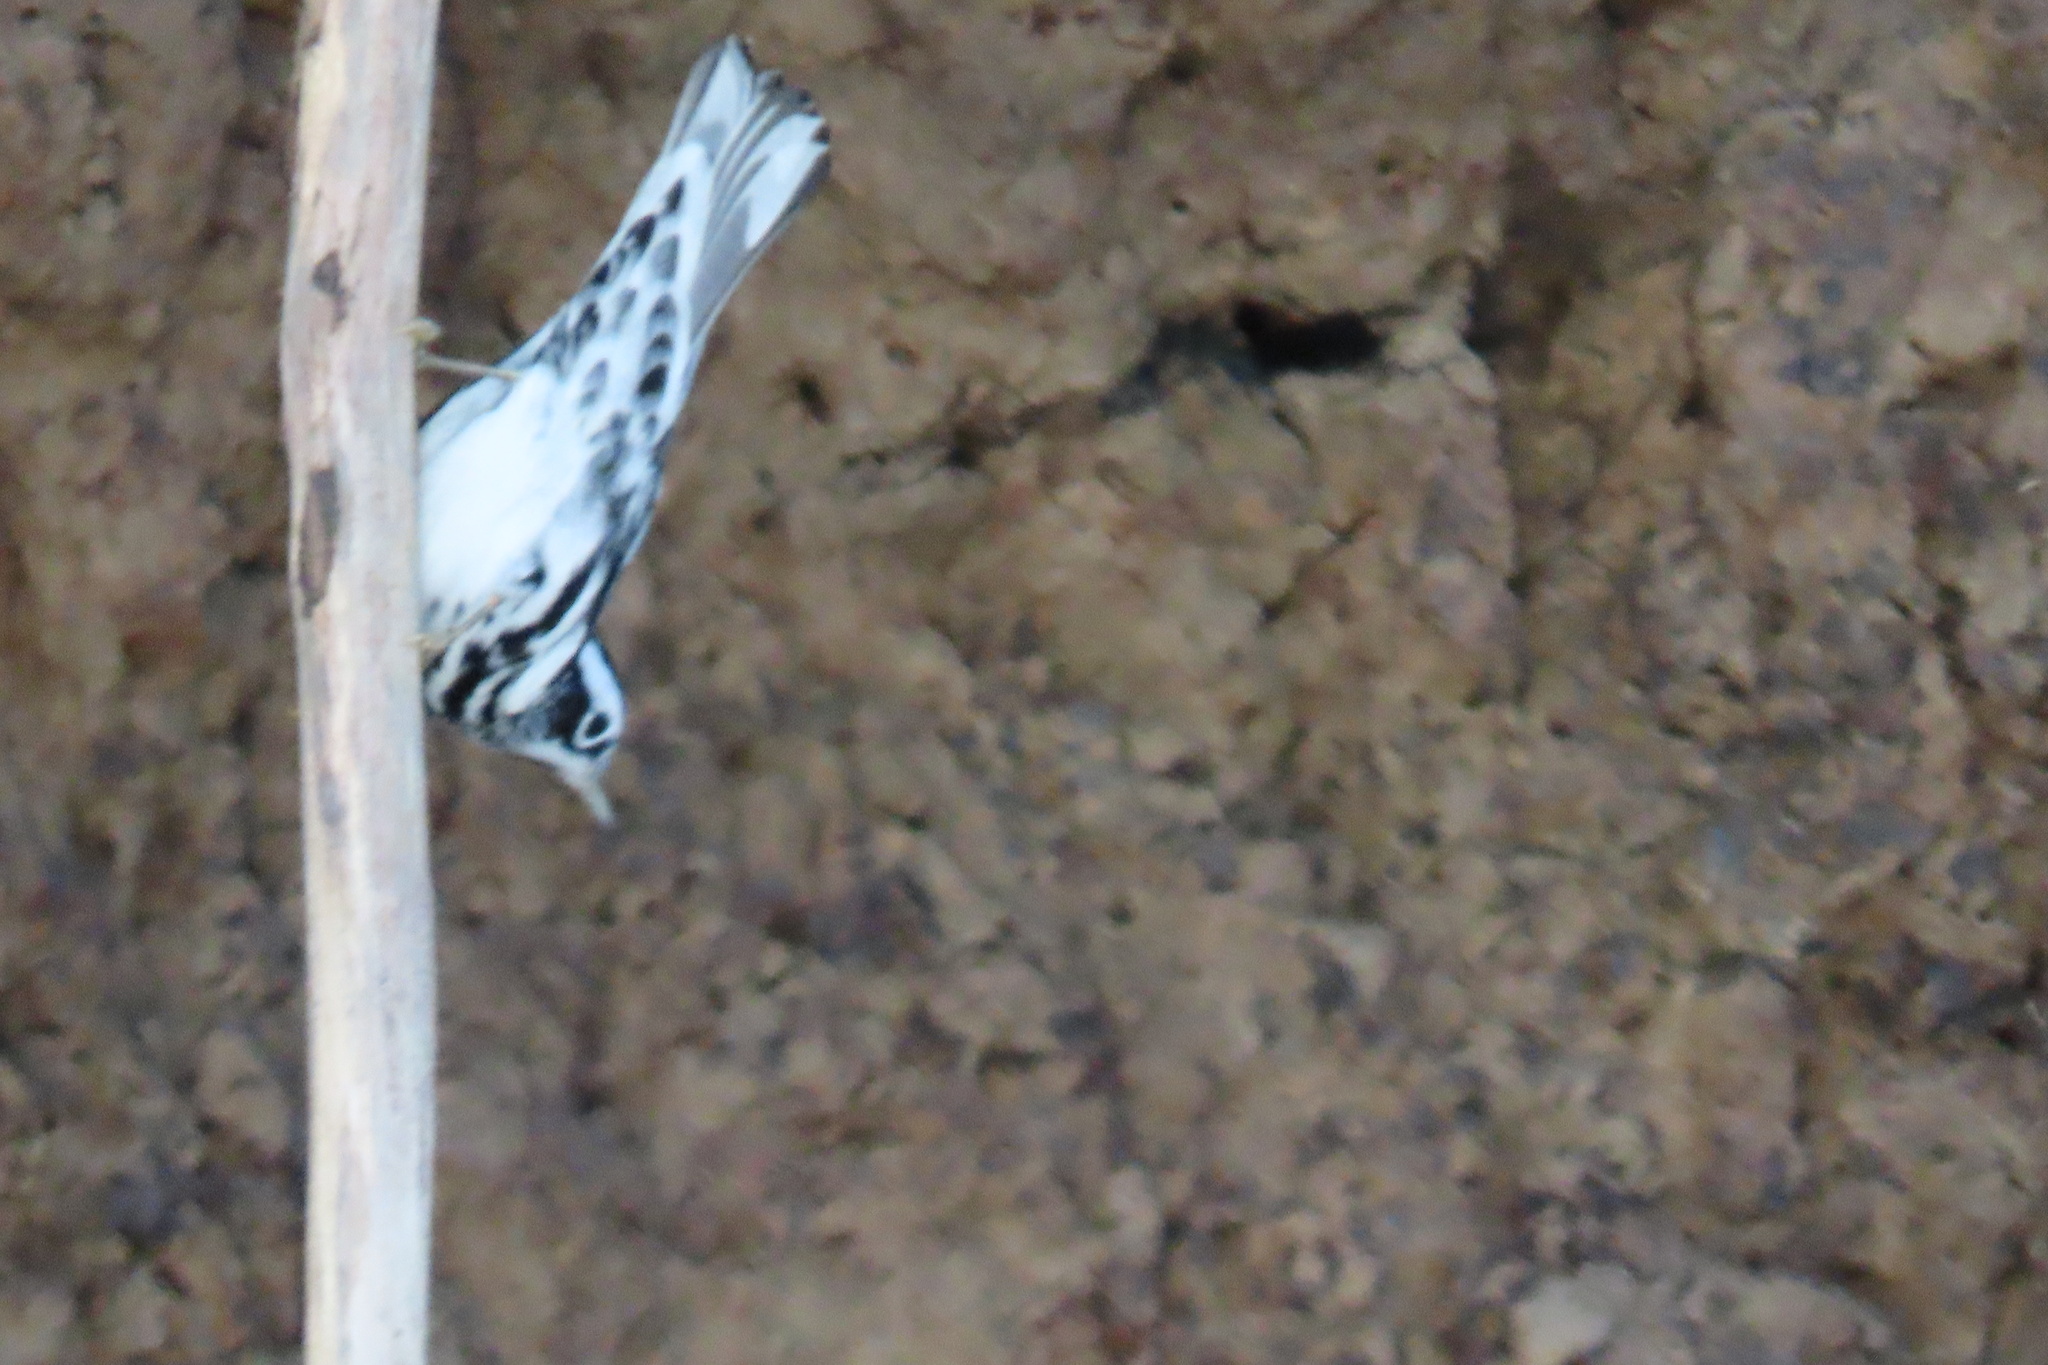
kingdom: Animalia
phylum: Chordata
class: Aves
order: Passeriformes
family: Parulidae
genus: Mniotilta
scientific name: Mniotilta varia
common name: Black-and-white warbler
